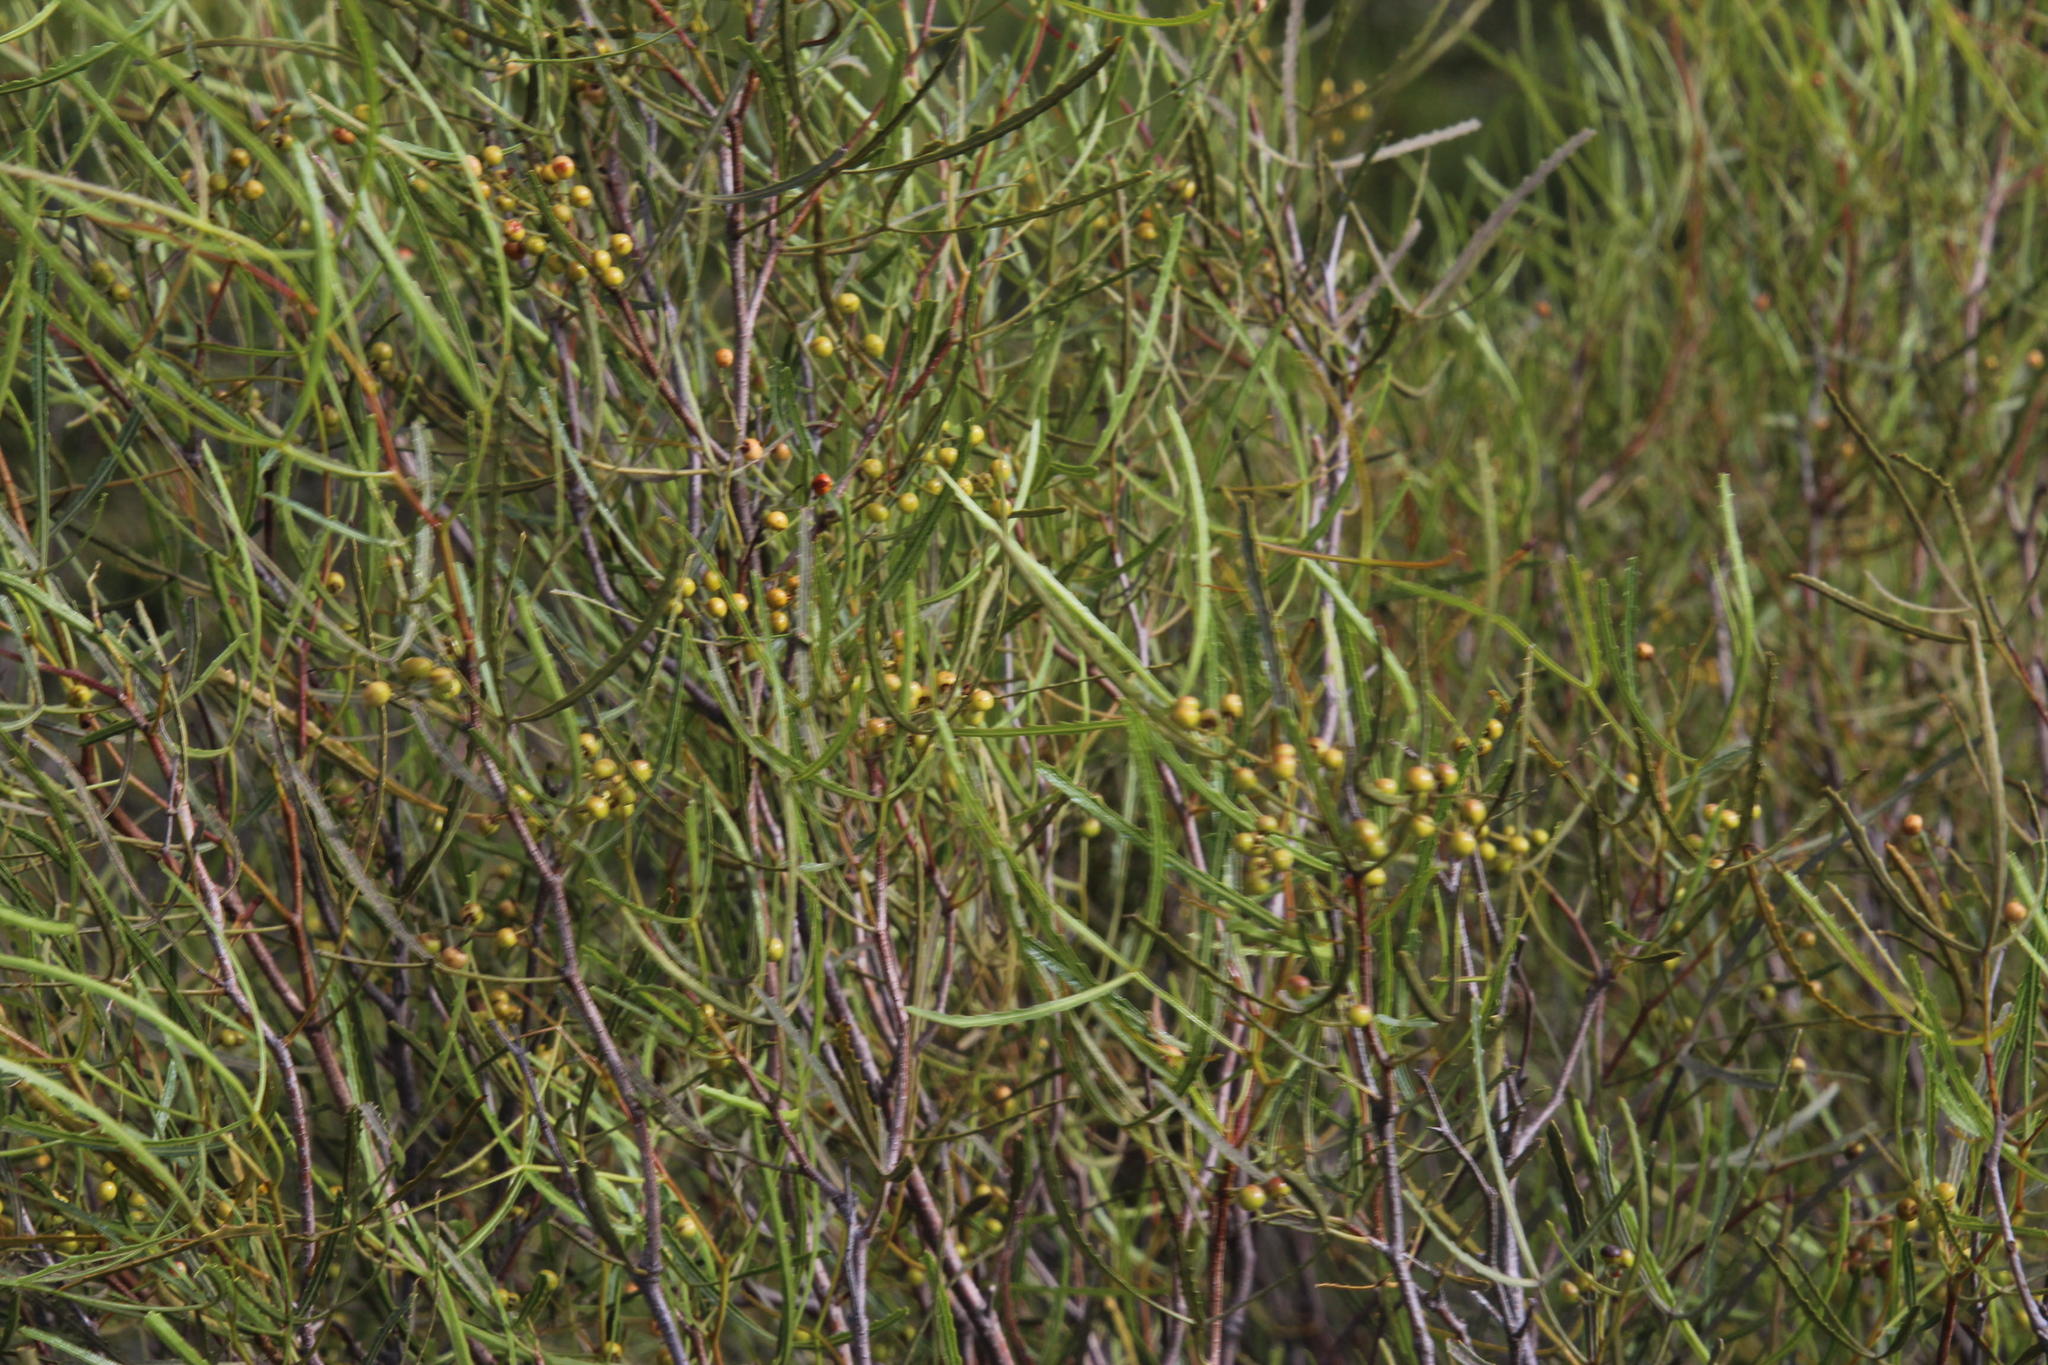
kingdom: Plantae
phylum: Tracheophyta
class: Magnoliopsida
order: Sapindales
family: Anacardiaceae
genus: Searsia
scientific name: Searsia erosa
